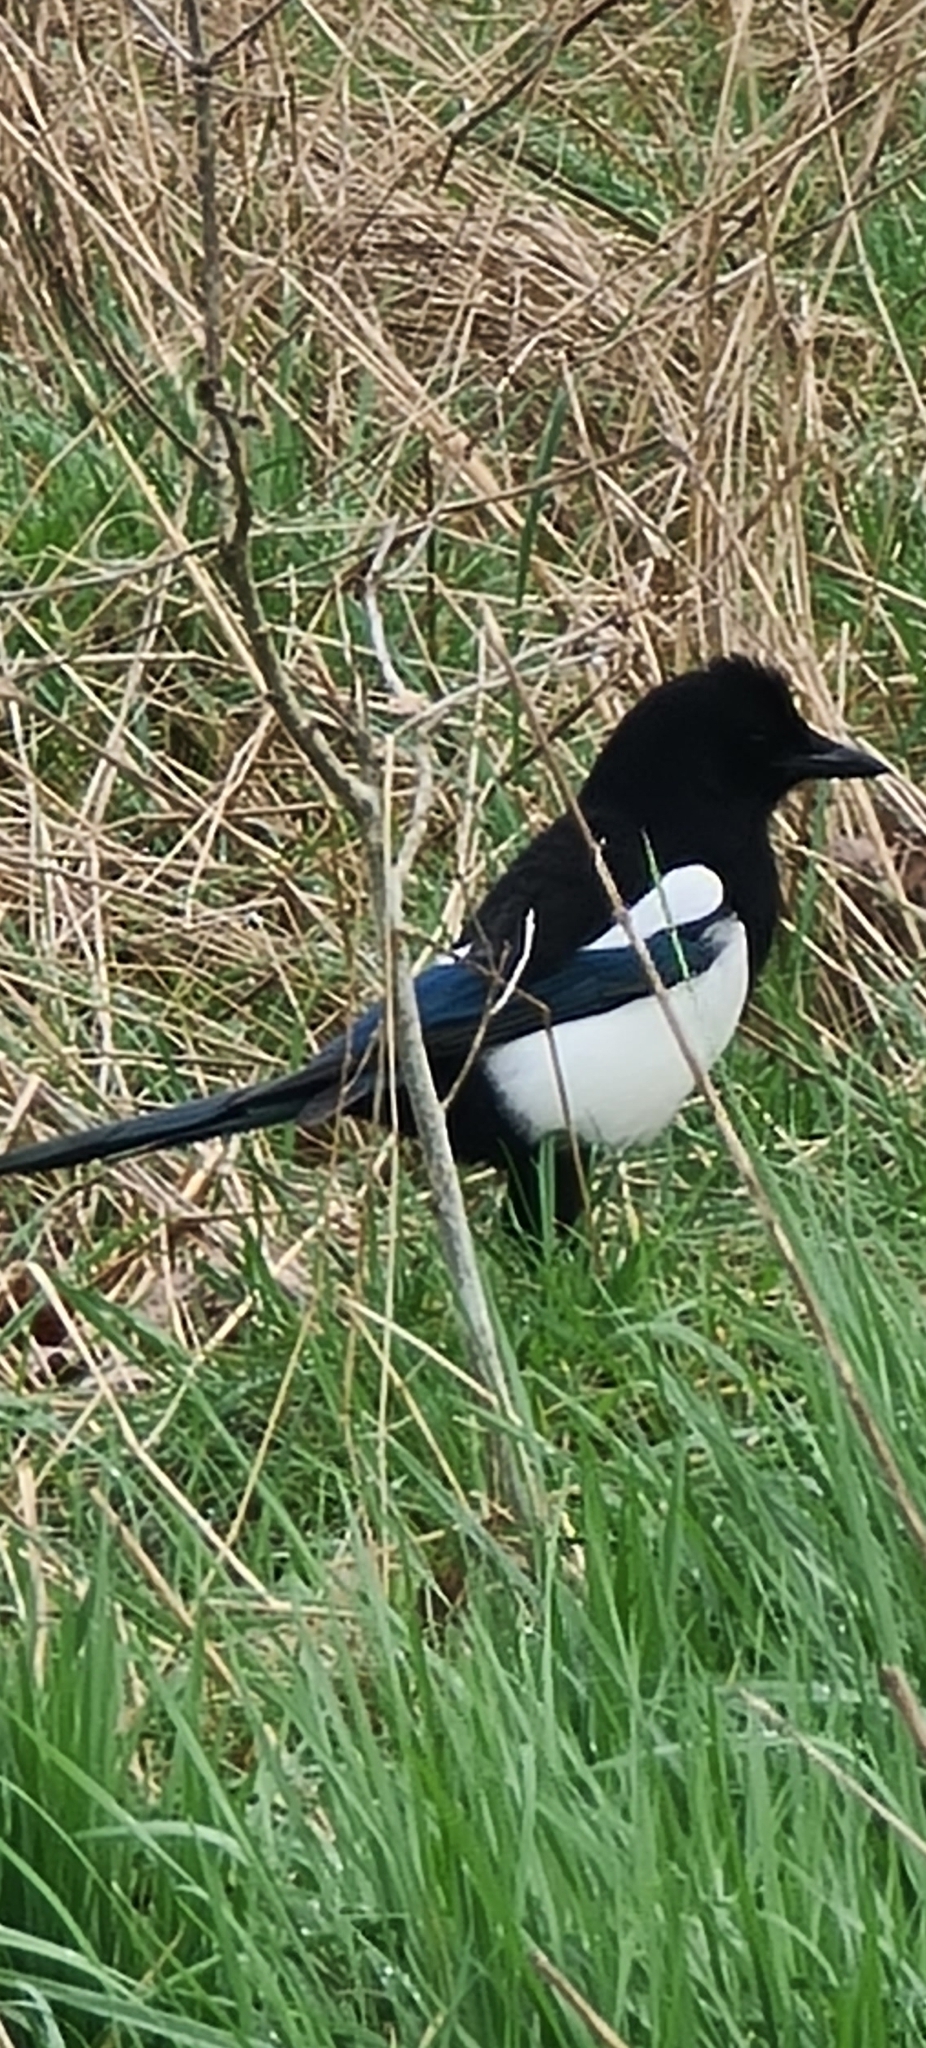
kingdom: Animalia
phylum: Chordata
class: Aves
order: Passeriformes
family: Corvidae
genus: Pica
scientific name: Pica pica
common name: Eurasian magpie
